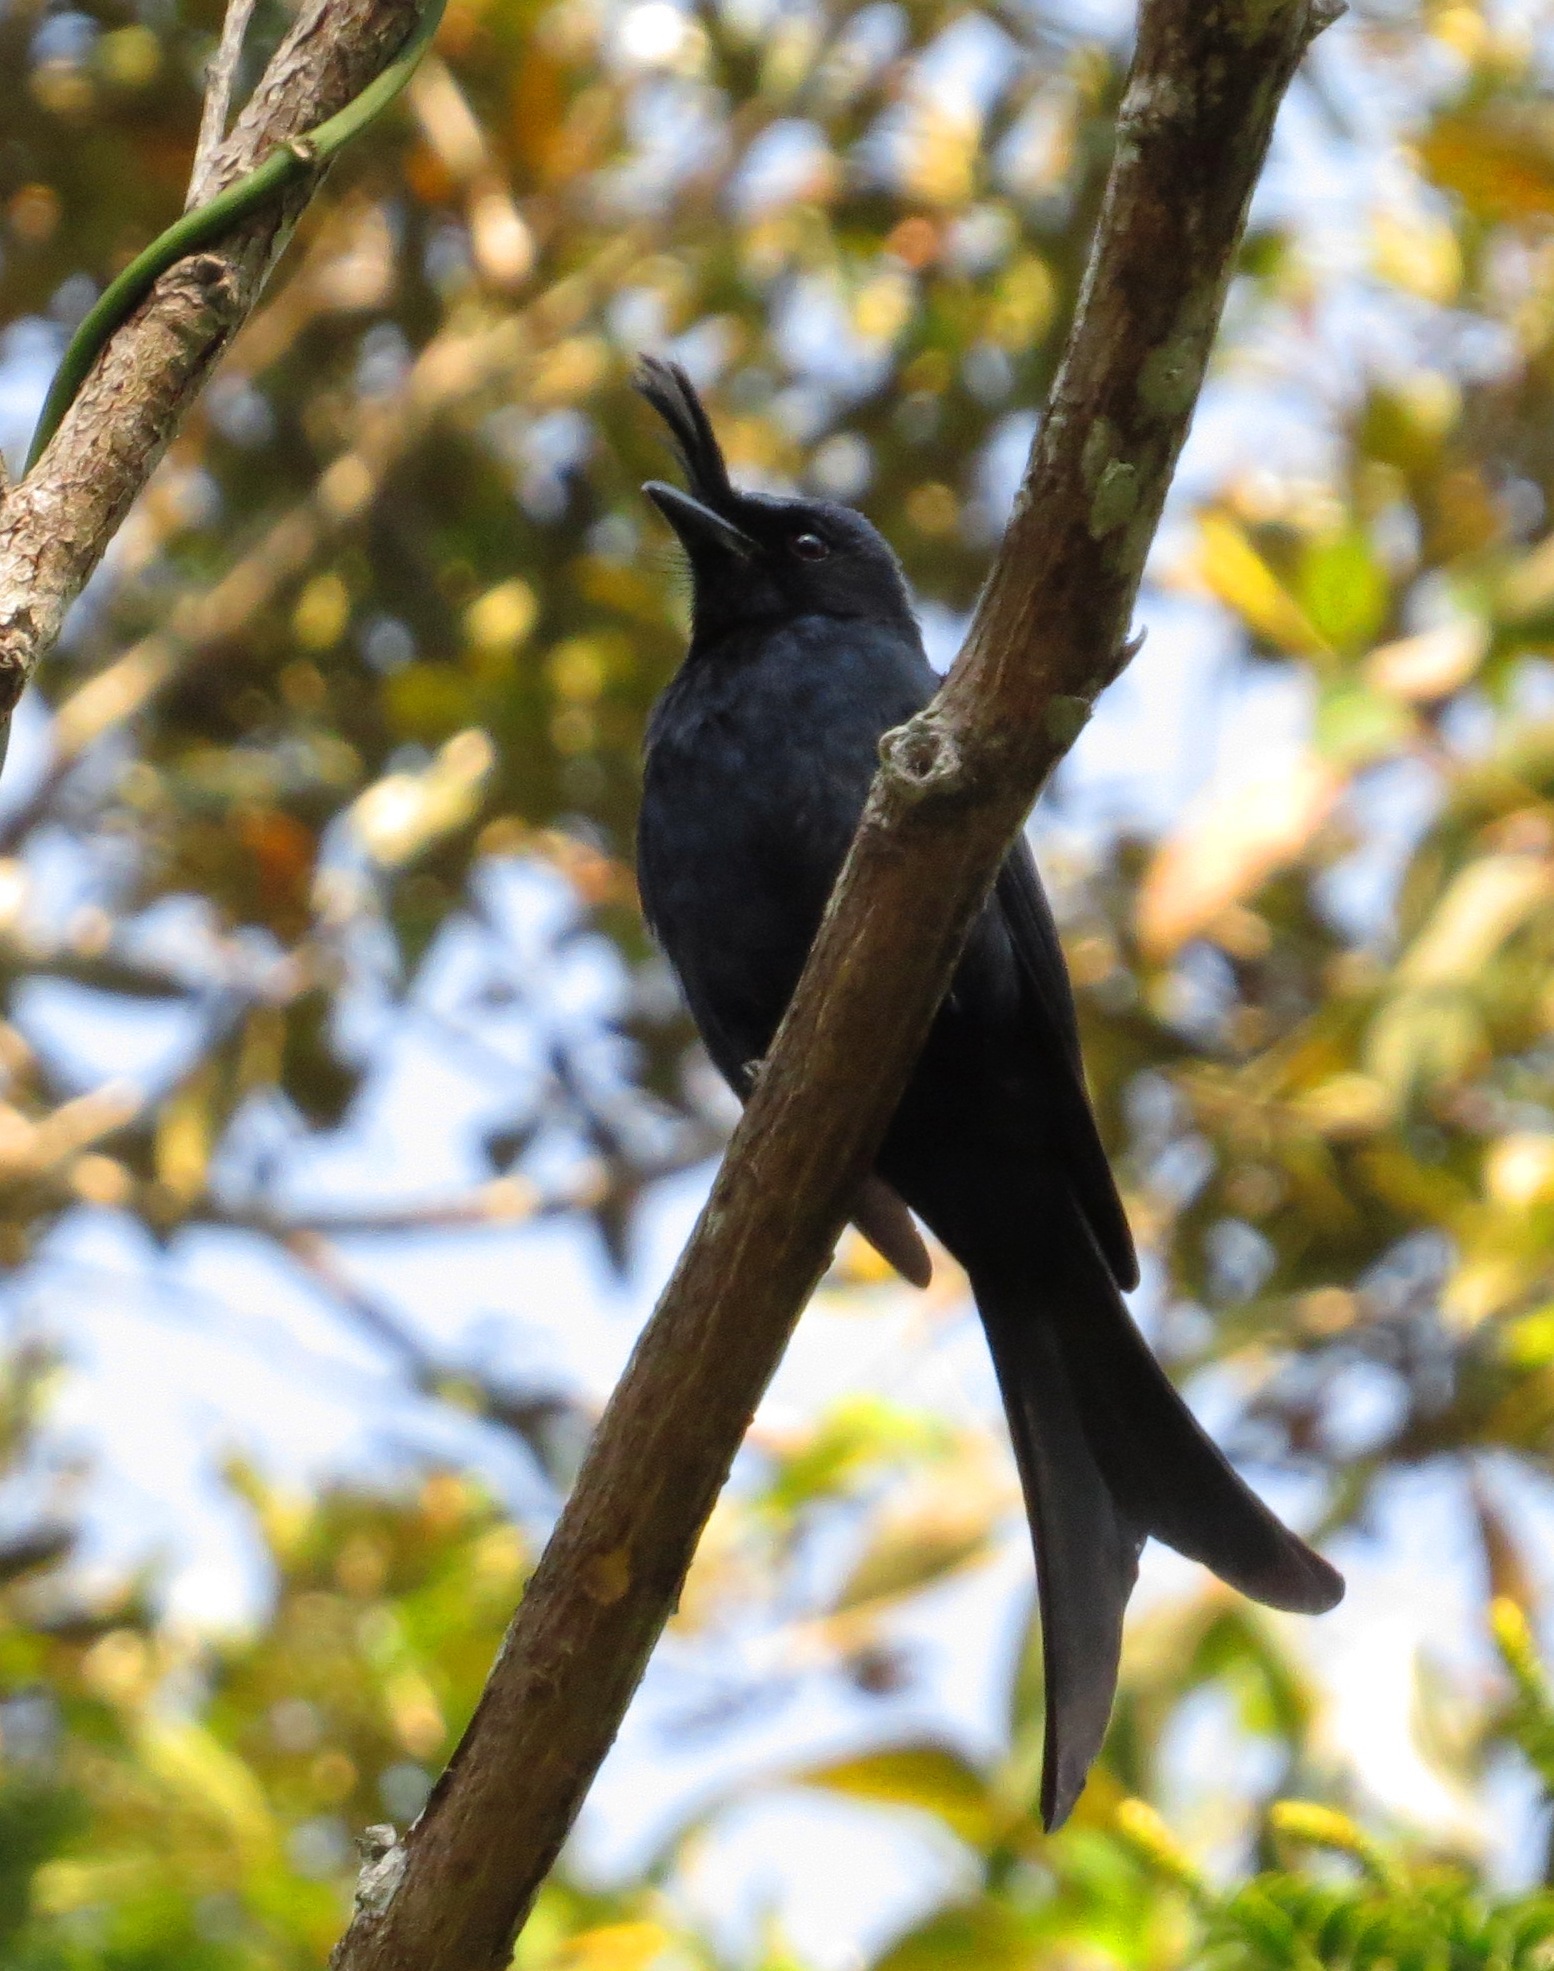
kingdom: Animalia
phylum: Chordata
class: Aves
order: Passeriformes
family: Dicruridae
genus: Dicrurus
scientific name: Dicrurus forficatus
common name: Crested drongo
